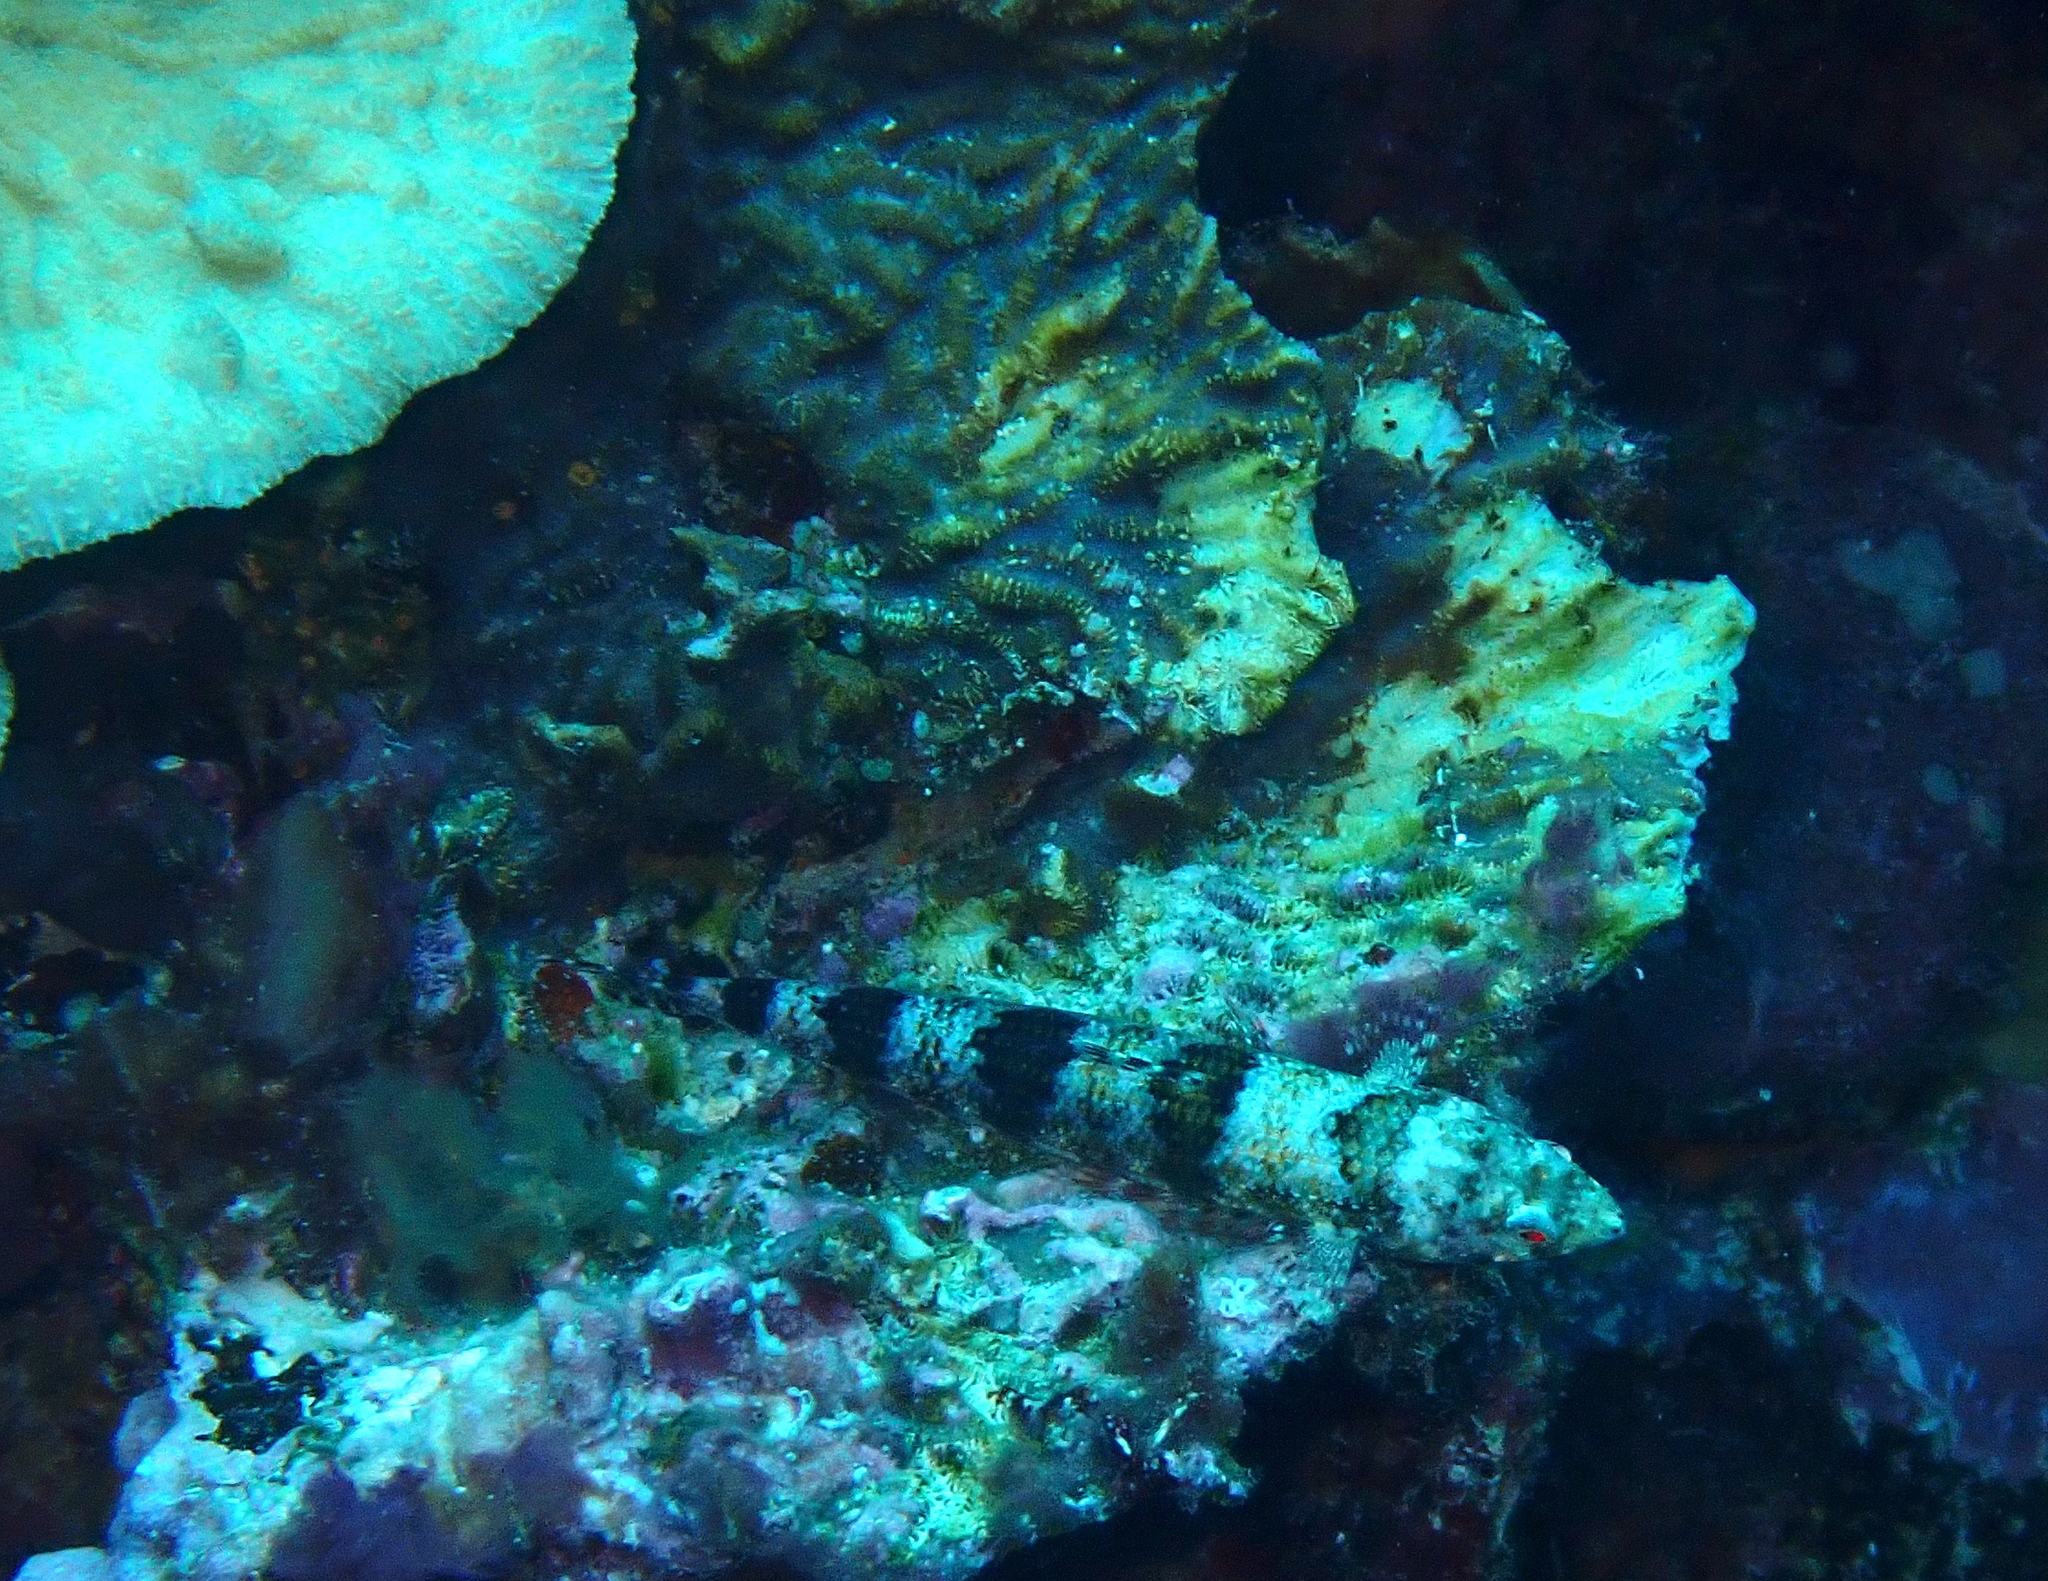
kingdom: Animalia
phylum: Chordata
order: Aulopiformes
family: Synodontidae
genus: Synodus
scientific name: Synodus variegatus
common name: Variegated lizardfish
